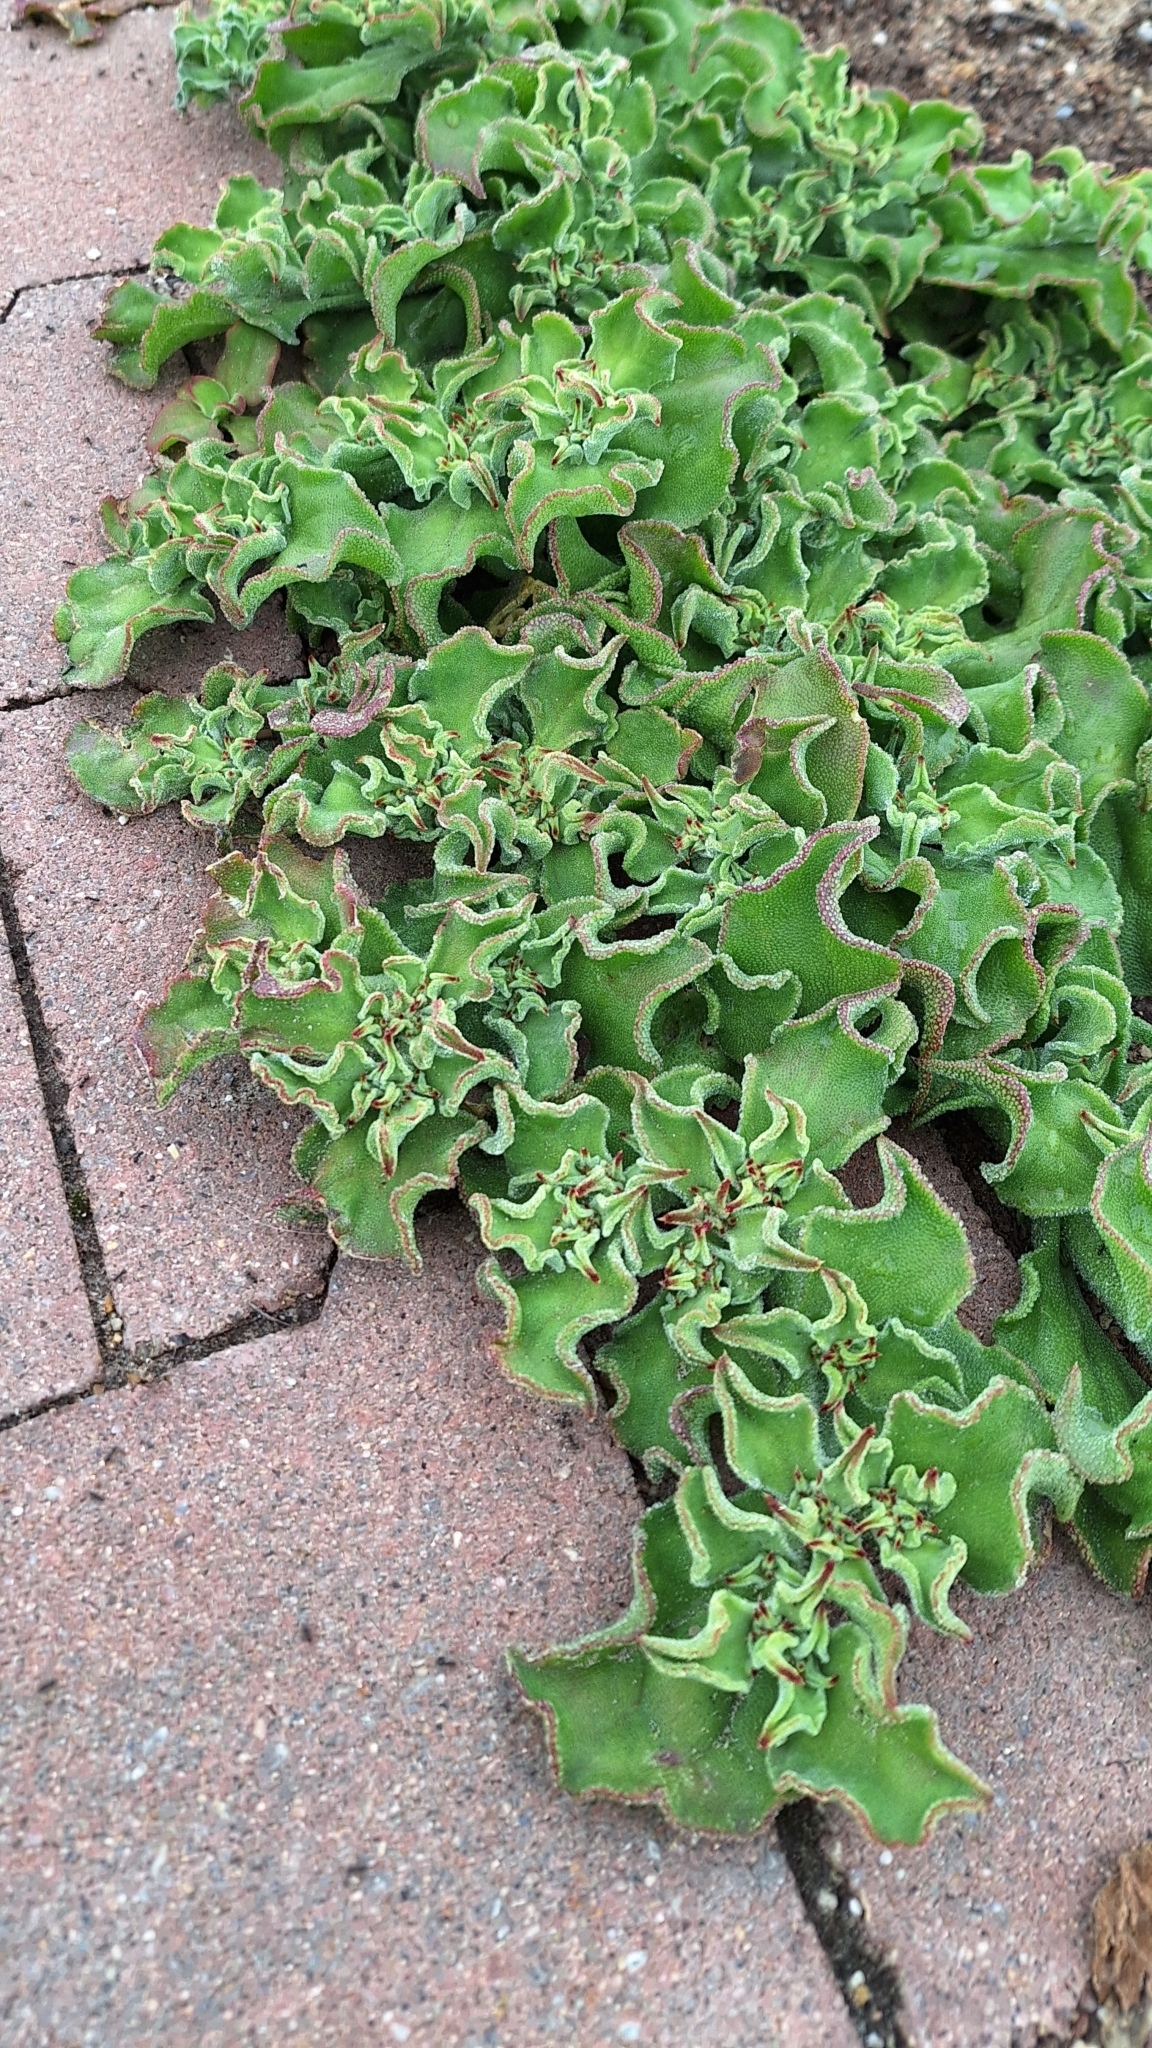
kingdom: Plantae
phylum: Tracheophyta
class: Magnoliopsida
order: Caryophyllales
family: Aizoaceae
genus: Mesembryanthemum
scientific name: Mesembryanthemum crystallinum
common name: Common iceplant
